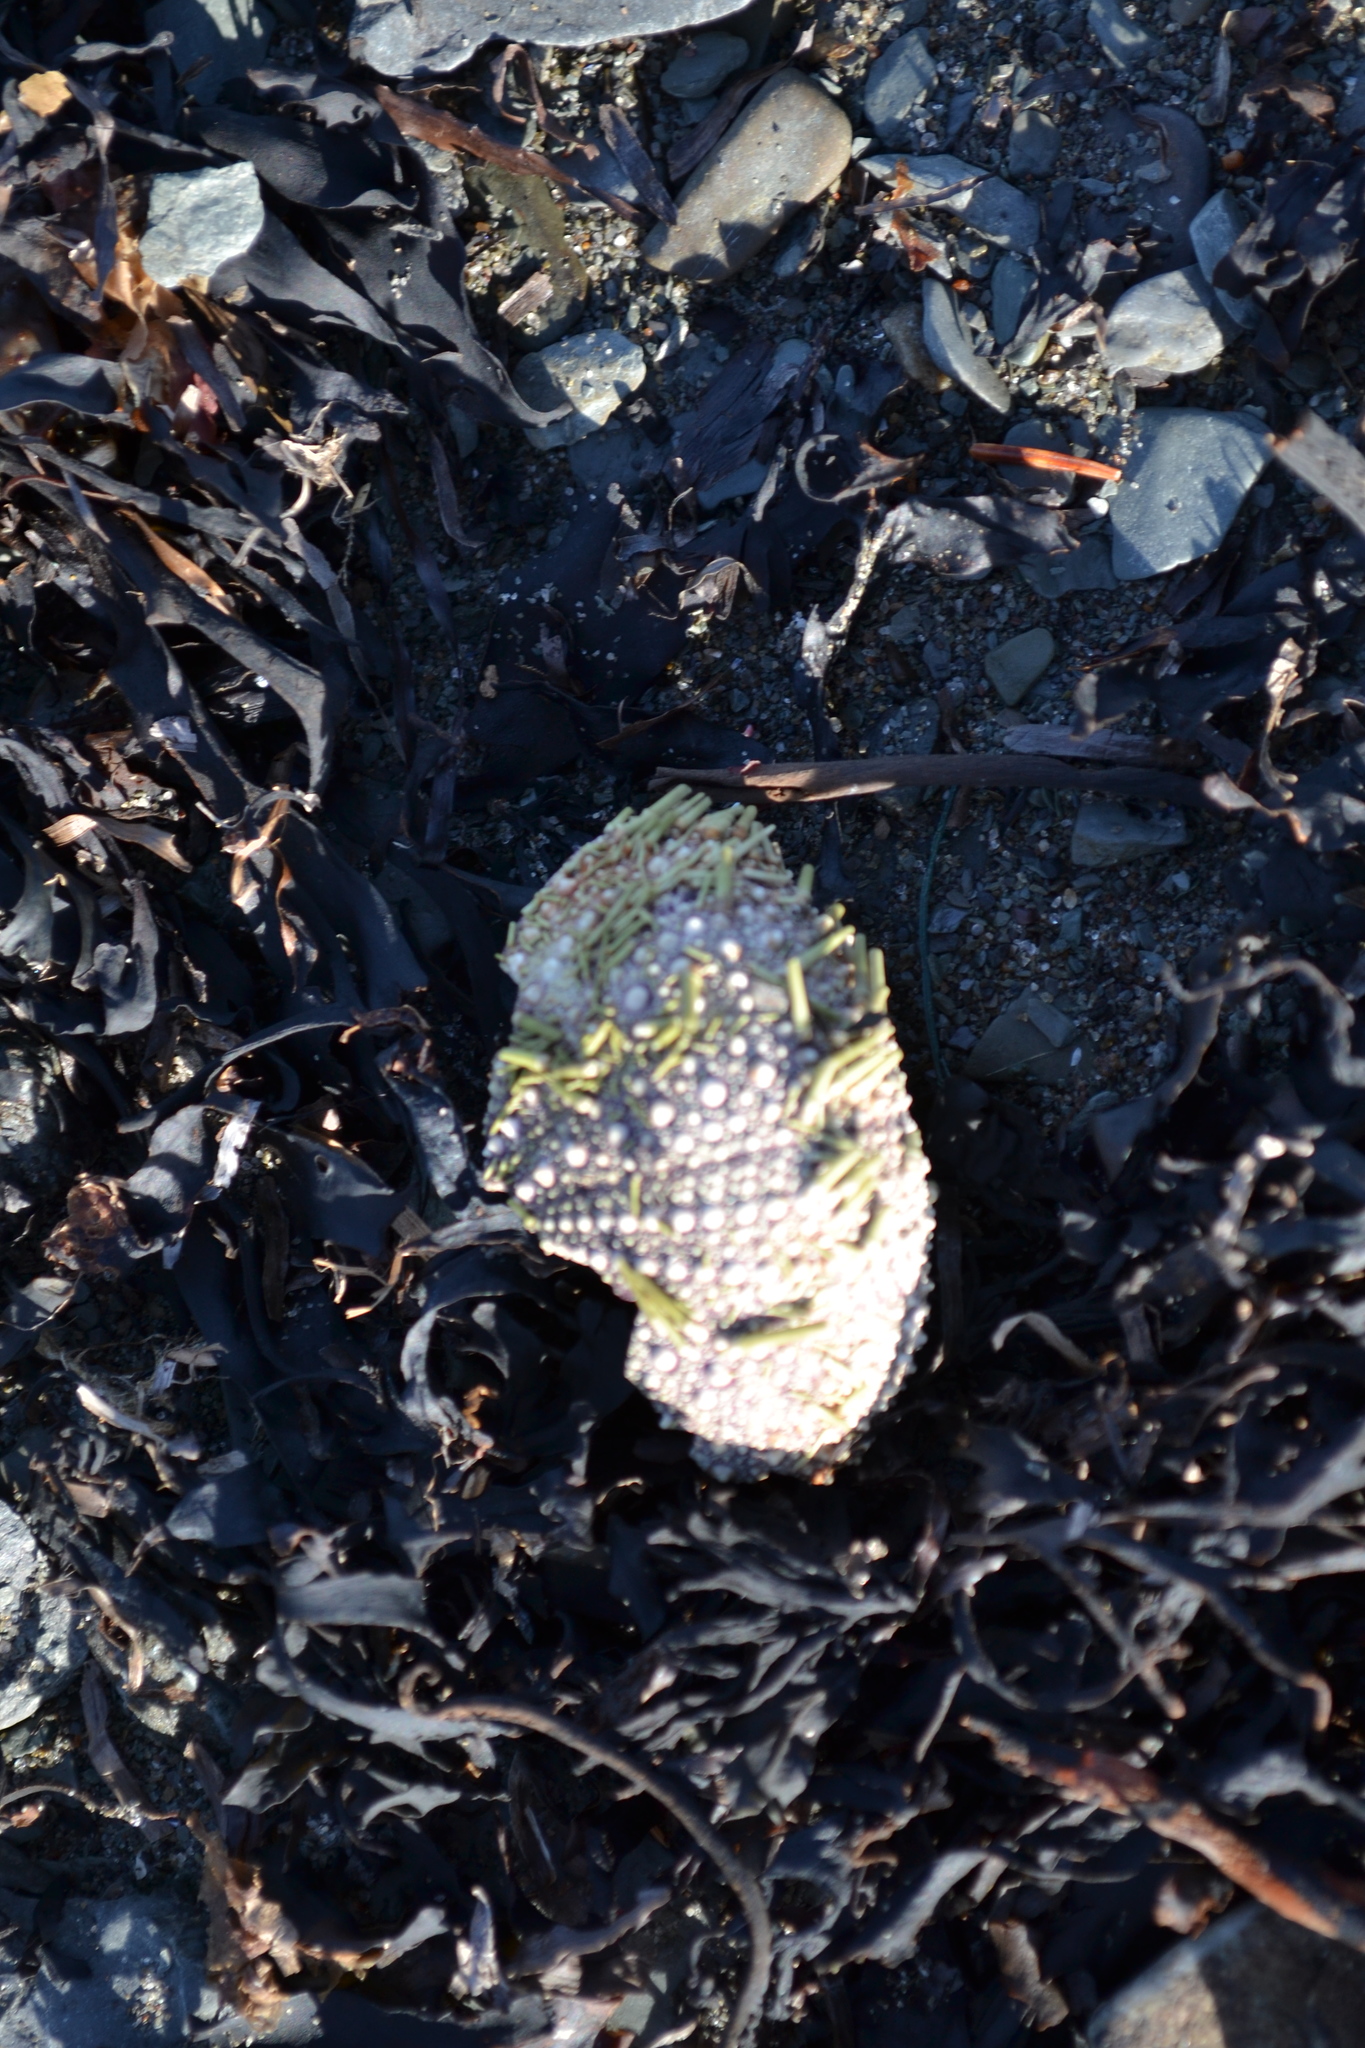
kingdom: Animalia
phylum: Echinodermata
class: Echinoidea
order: Camarodonta
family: Strongylocentrotidae
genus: Strongylocentrotus
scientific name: Strongylocentrotus droebachiensis
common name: Northern sea urchin
